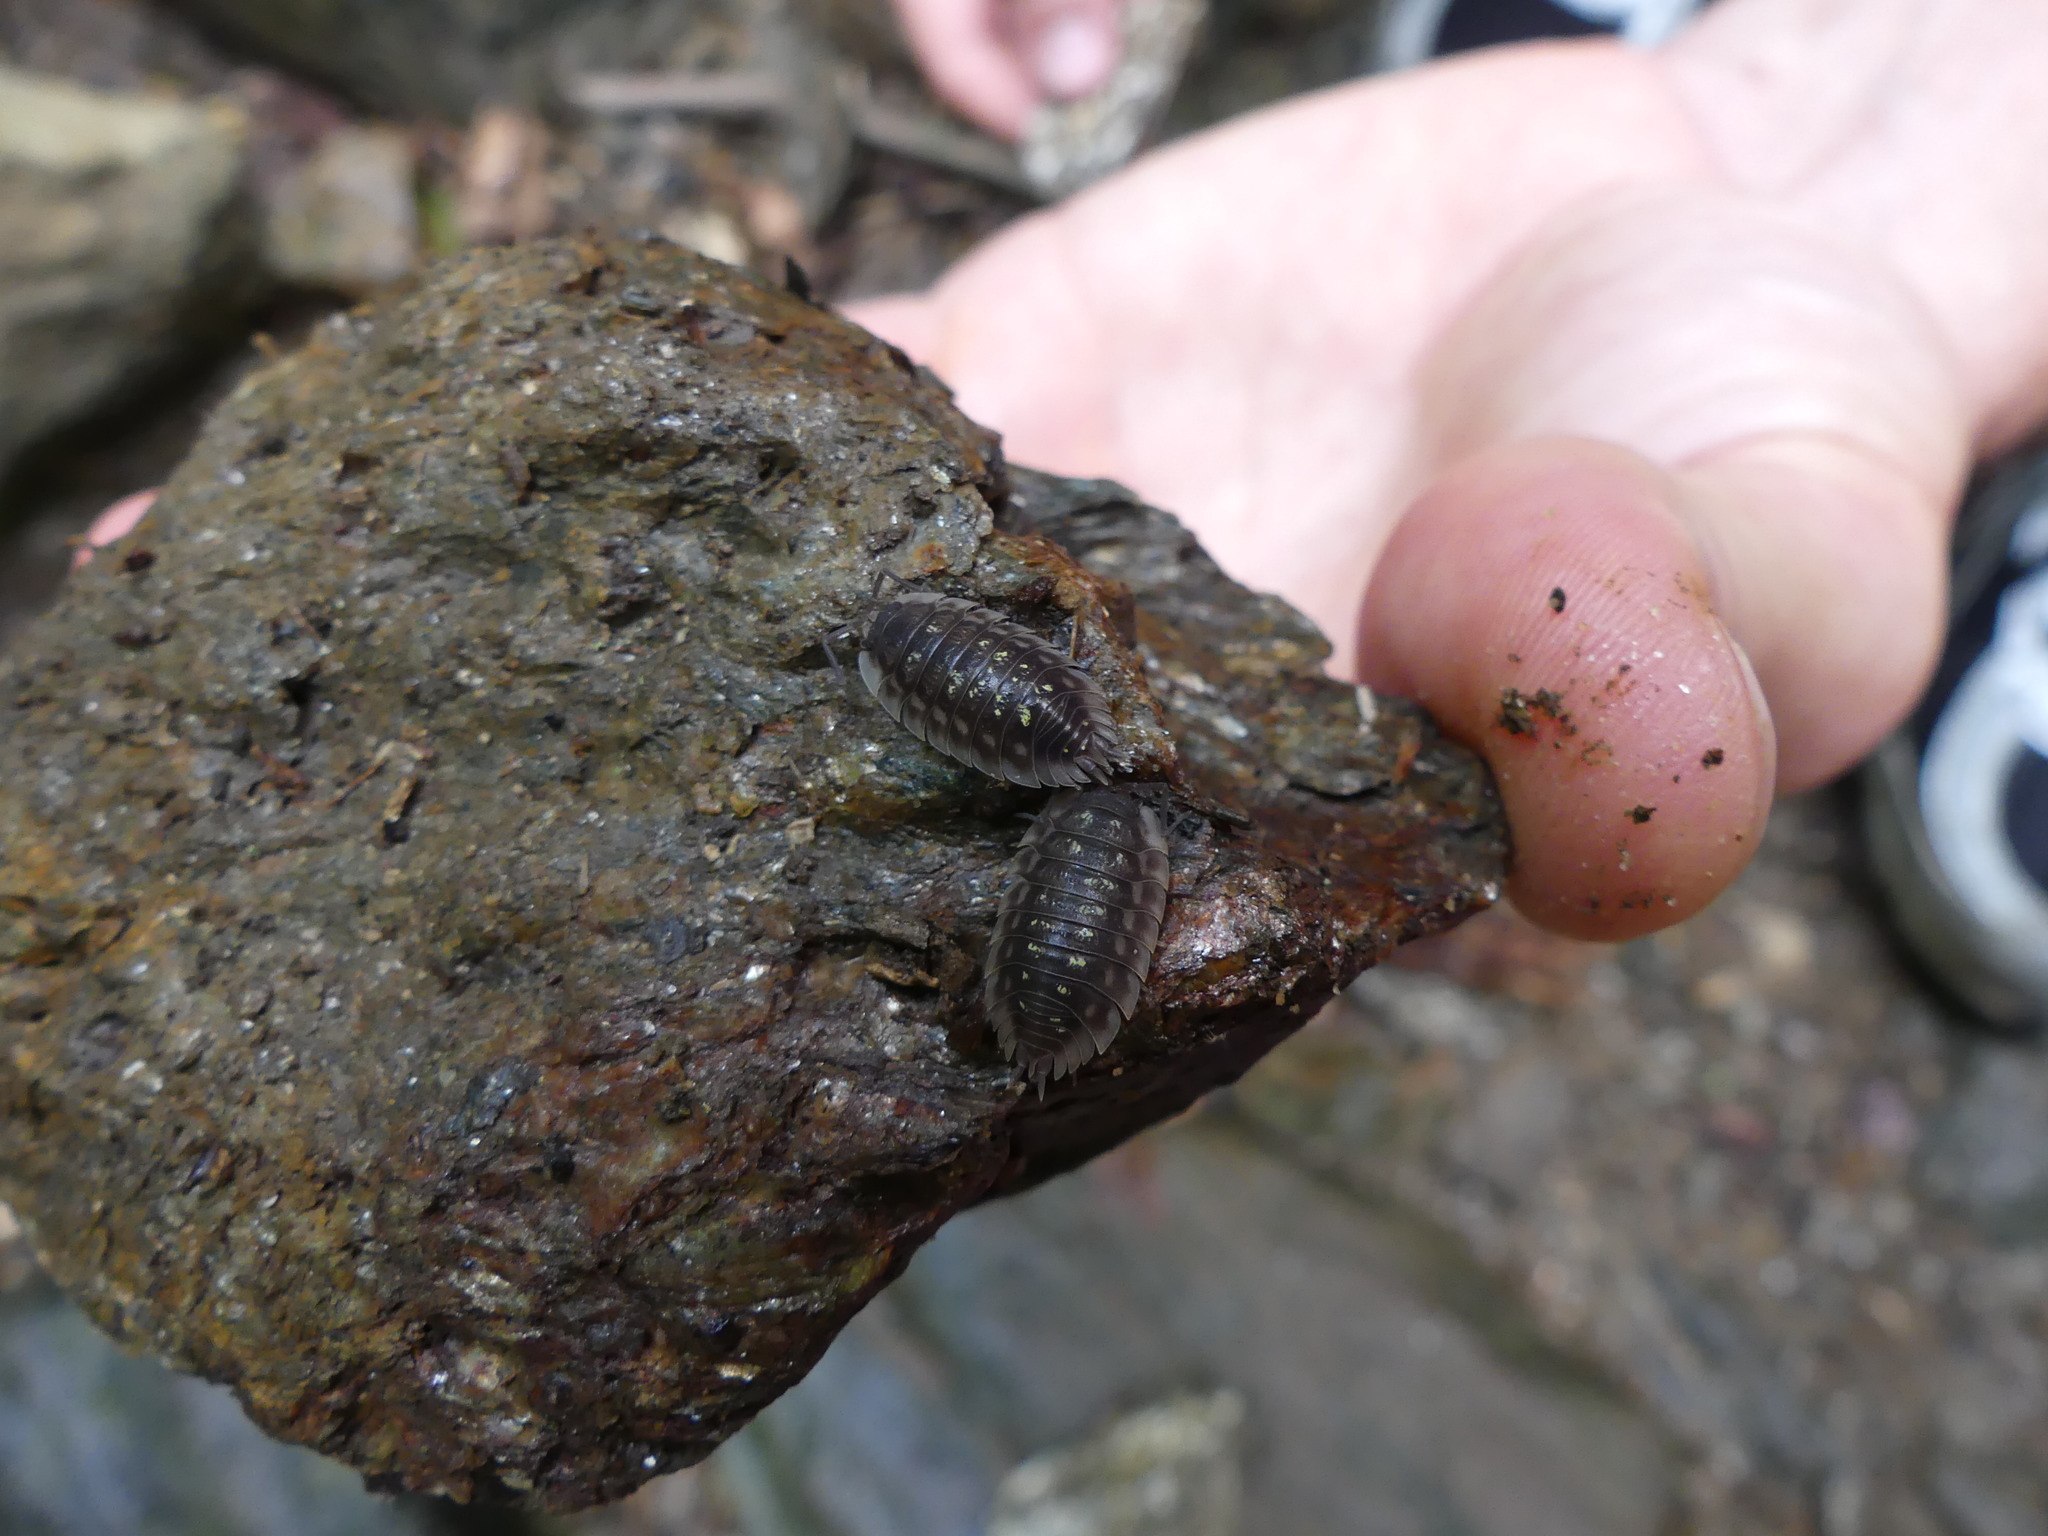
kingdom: Animalia
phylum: Arthropoda
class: Malacostraca
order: Isopoda
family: Oniscidae
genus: Oniscus
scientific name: Oniscus asellus
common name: Common shiny woodlouse
